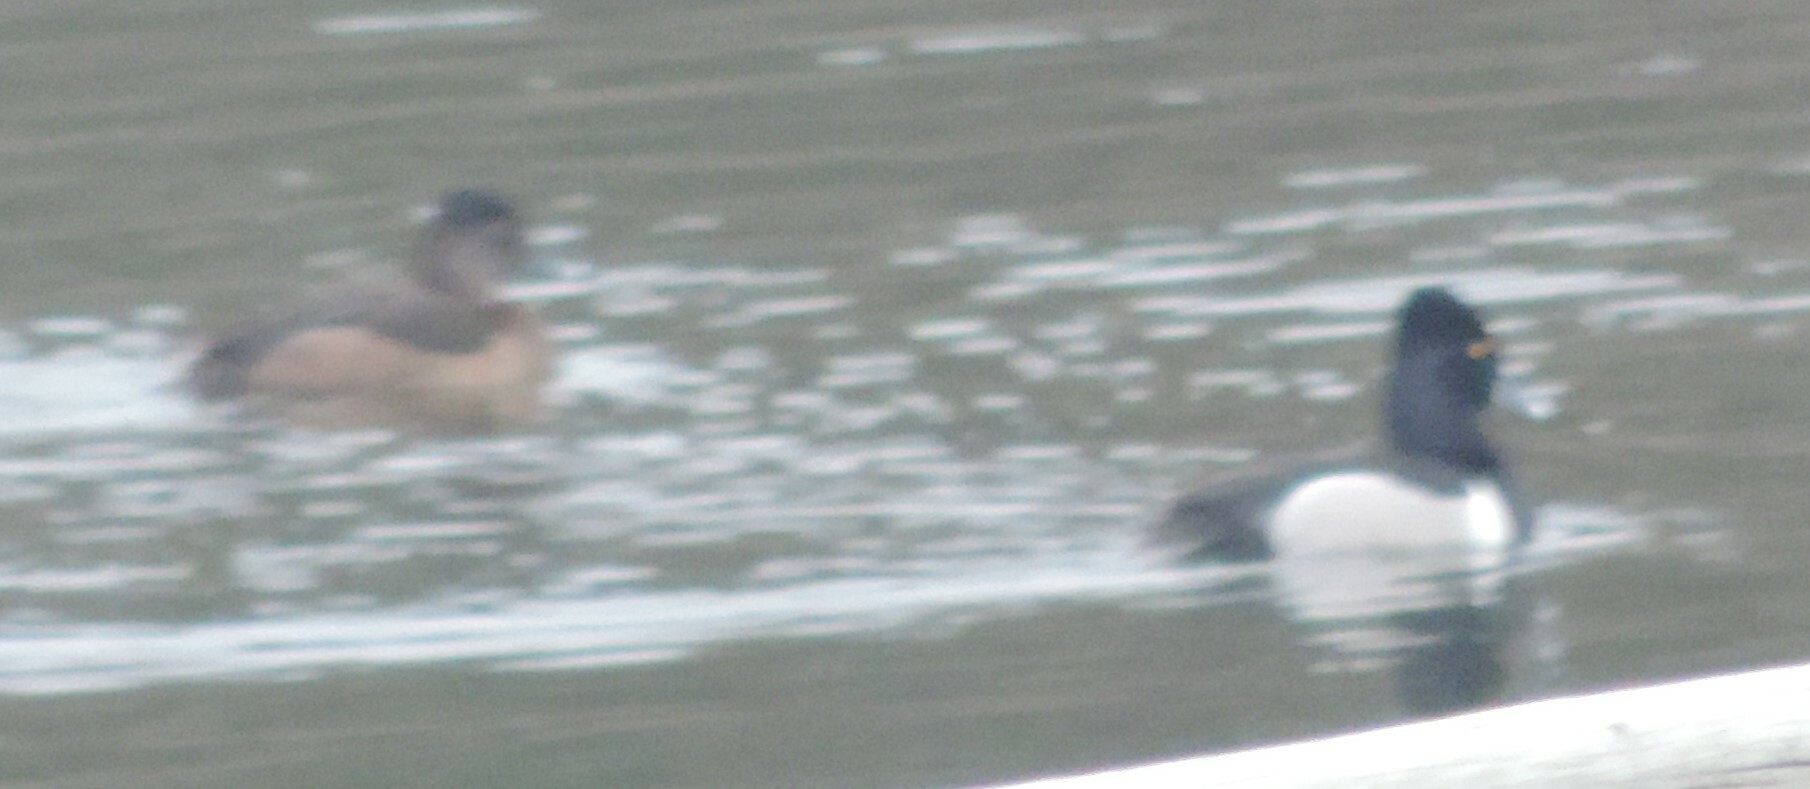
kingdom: Animalia
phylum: Chordata
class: Aves
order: Anseriformes
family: Anatidae
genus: Aythya
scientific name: Aythya collaris
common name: Ring-necked duck
